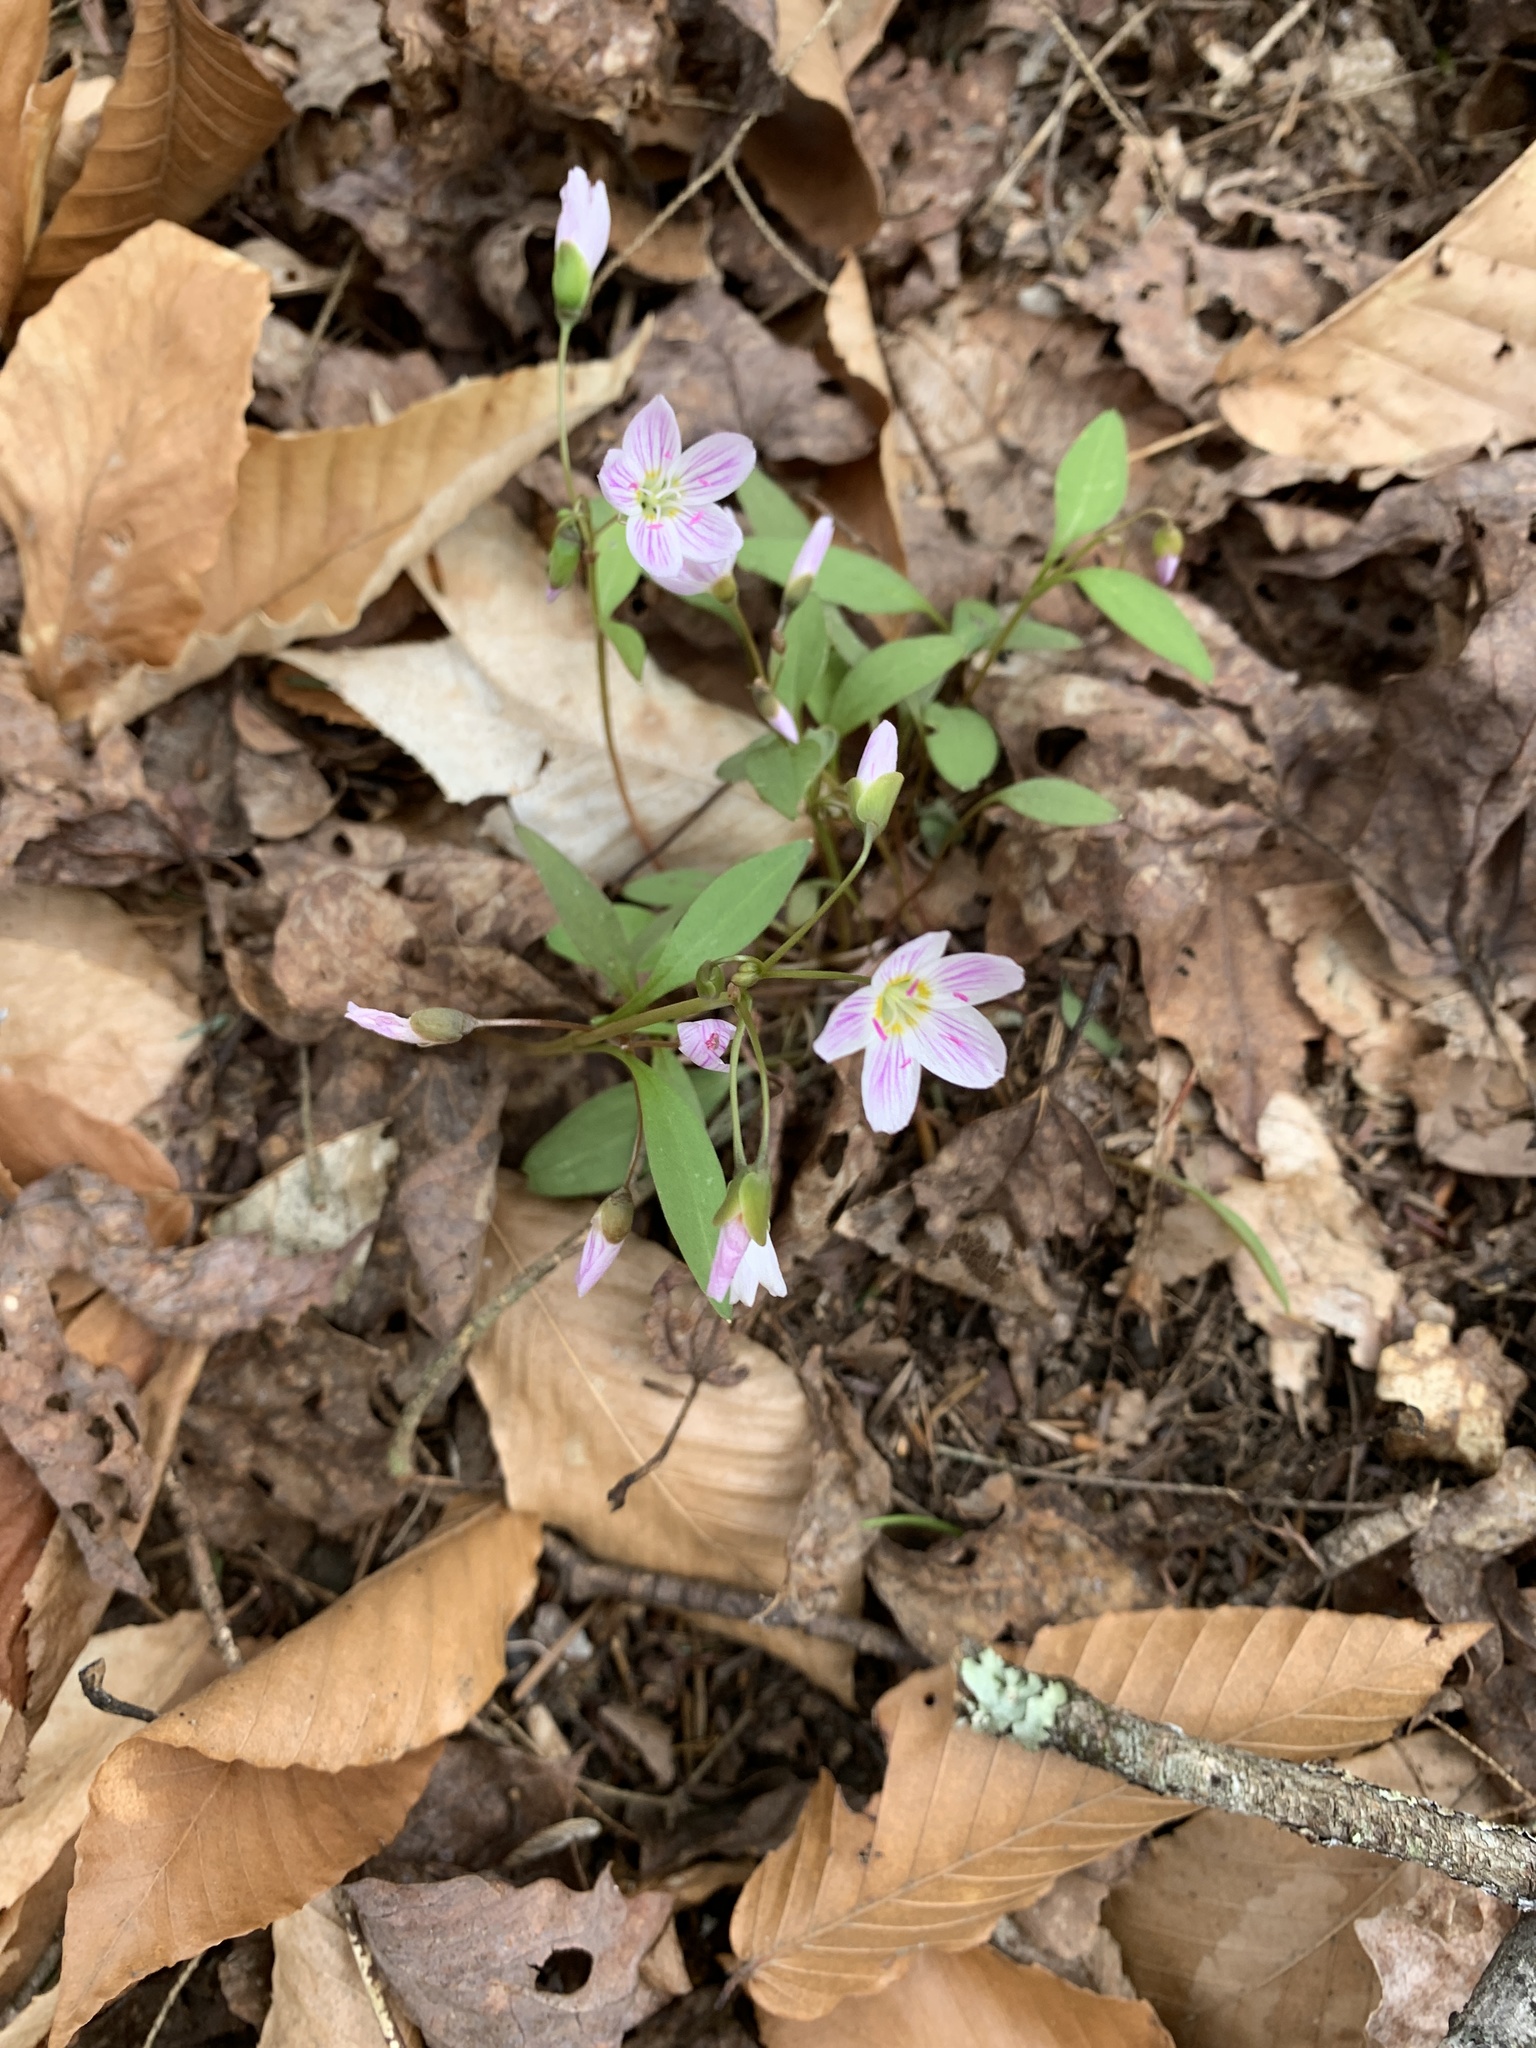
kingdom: Plantae
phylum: Tracheophyta
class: Magnoliopsida
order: Caryophyllales
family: Montiaceae
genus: Claytonia
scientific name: Claytonia caroliniana
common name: Carolina spring beauty
